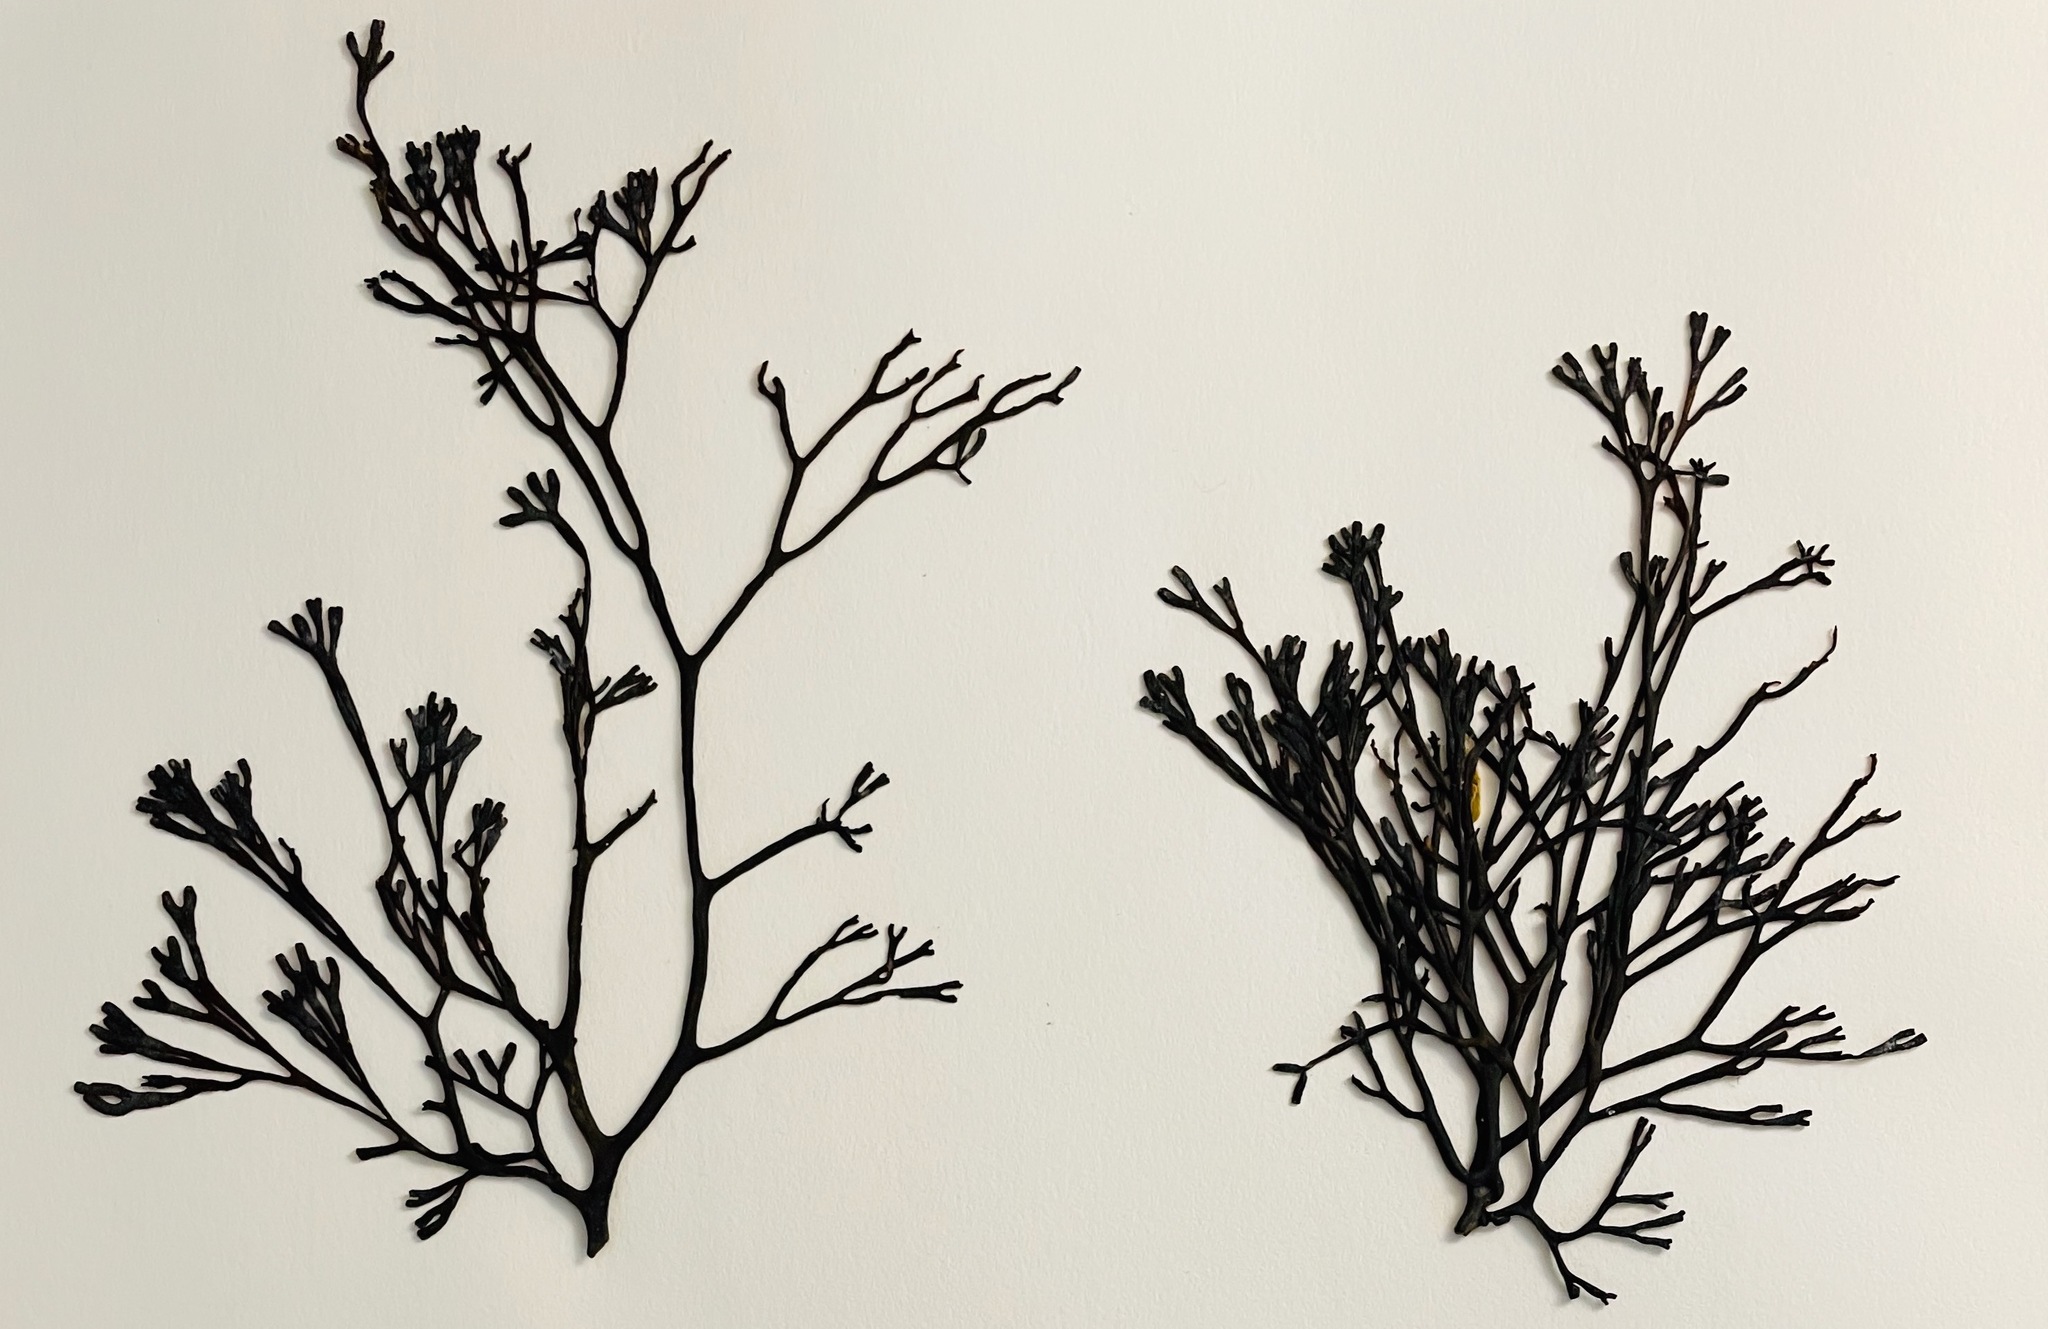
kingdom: Chromista
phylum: Ochrophyta
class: Phaeophyceae
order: Fucales
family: Fucaceae
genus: Silvetia
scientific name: Silvetia
